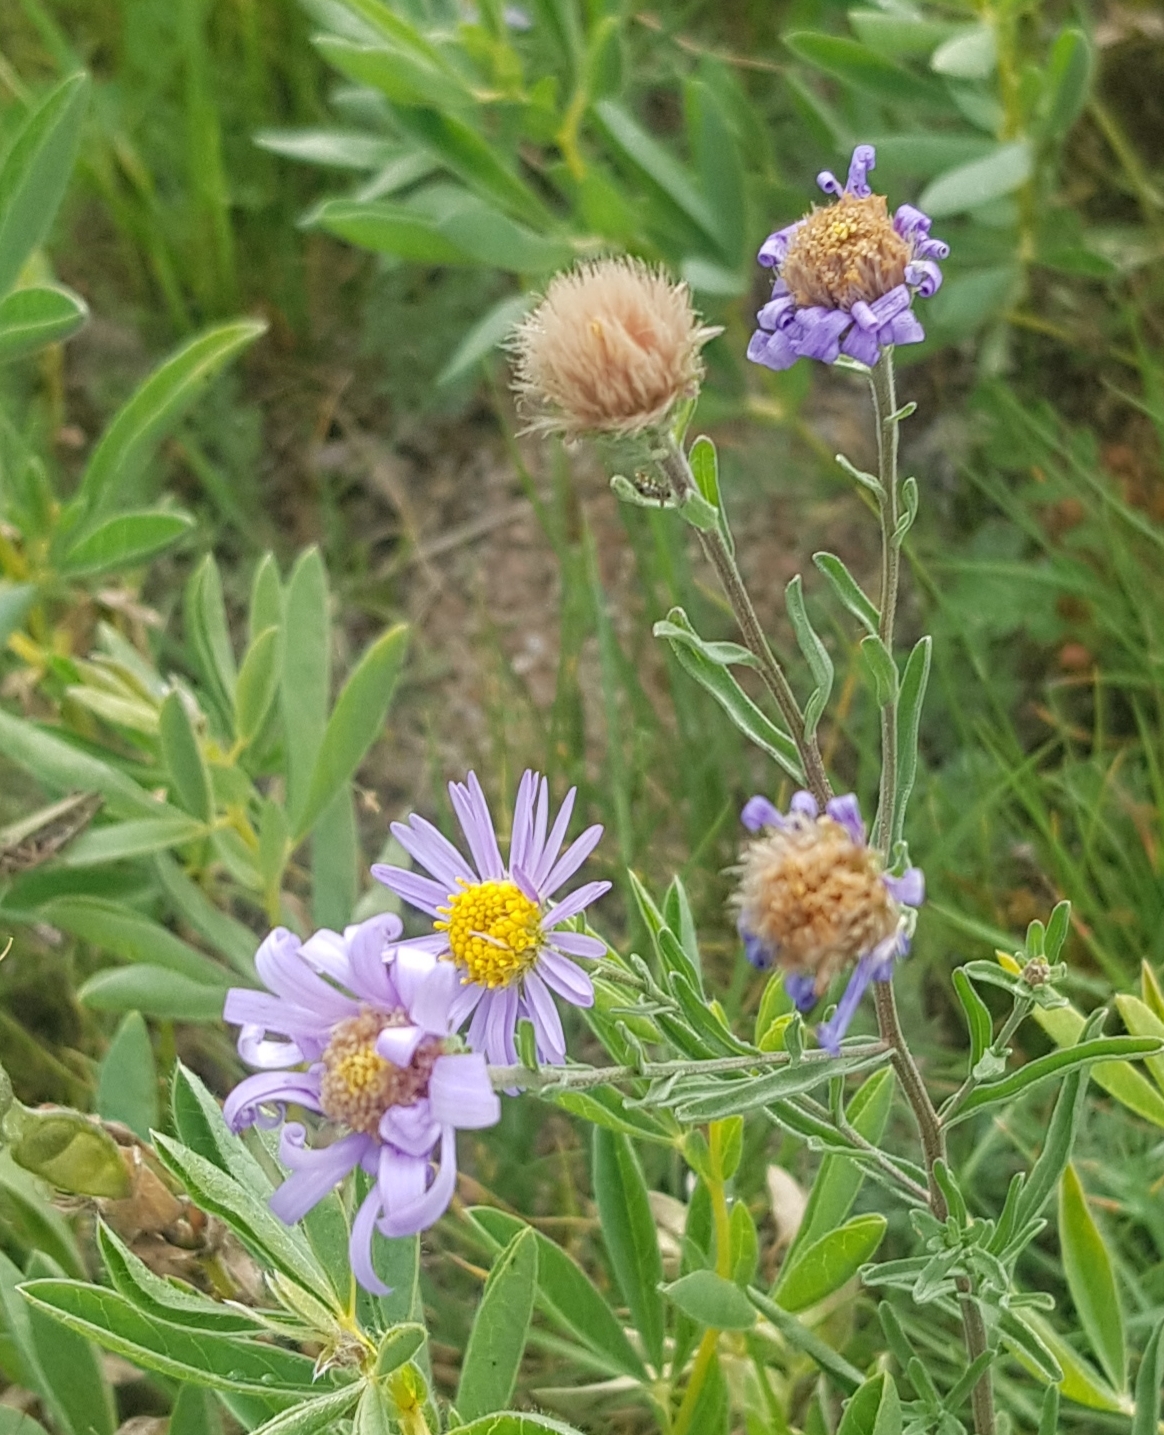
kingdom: Plantae
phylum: Tracheophyta
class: Magnoliopsida
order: Asterales
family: Asteraceae
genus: Aster
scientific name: Aster alpinus
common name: Alpine aster
